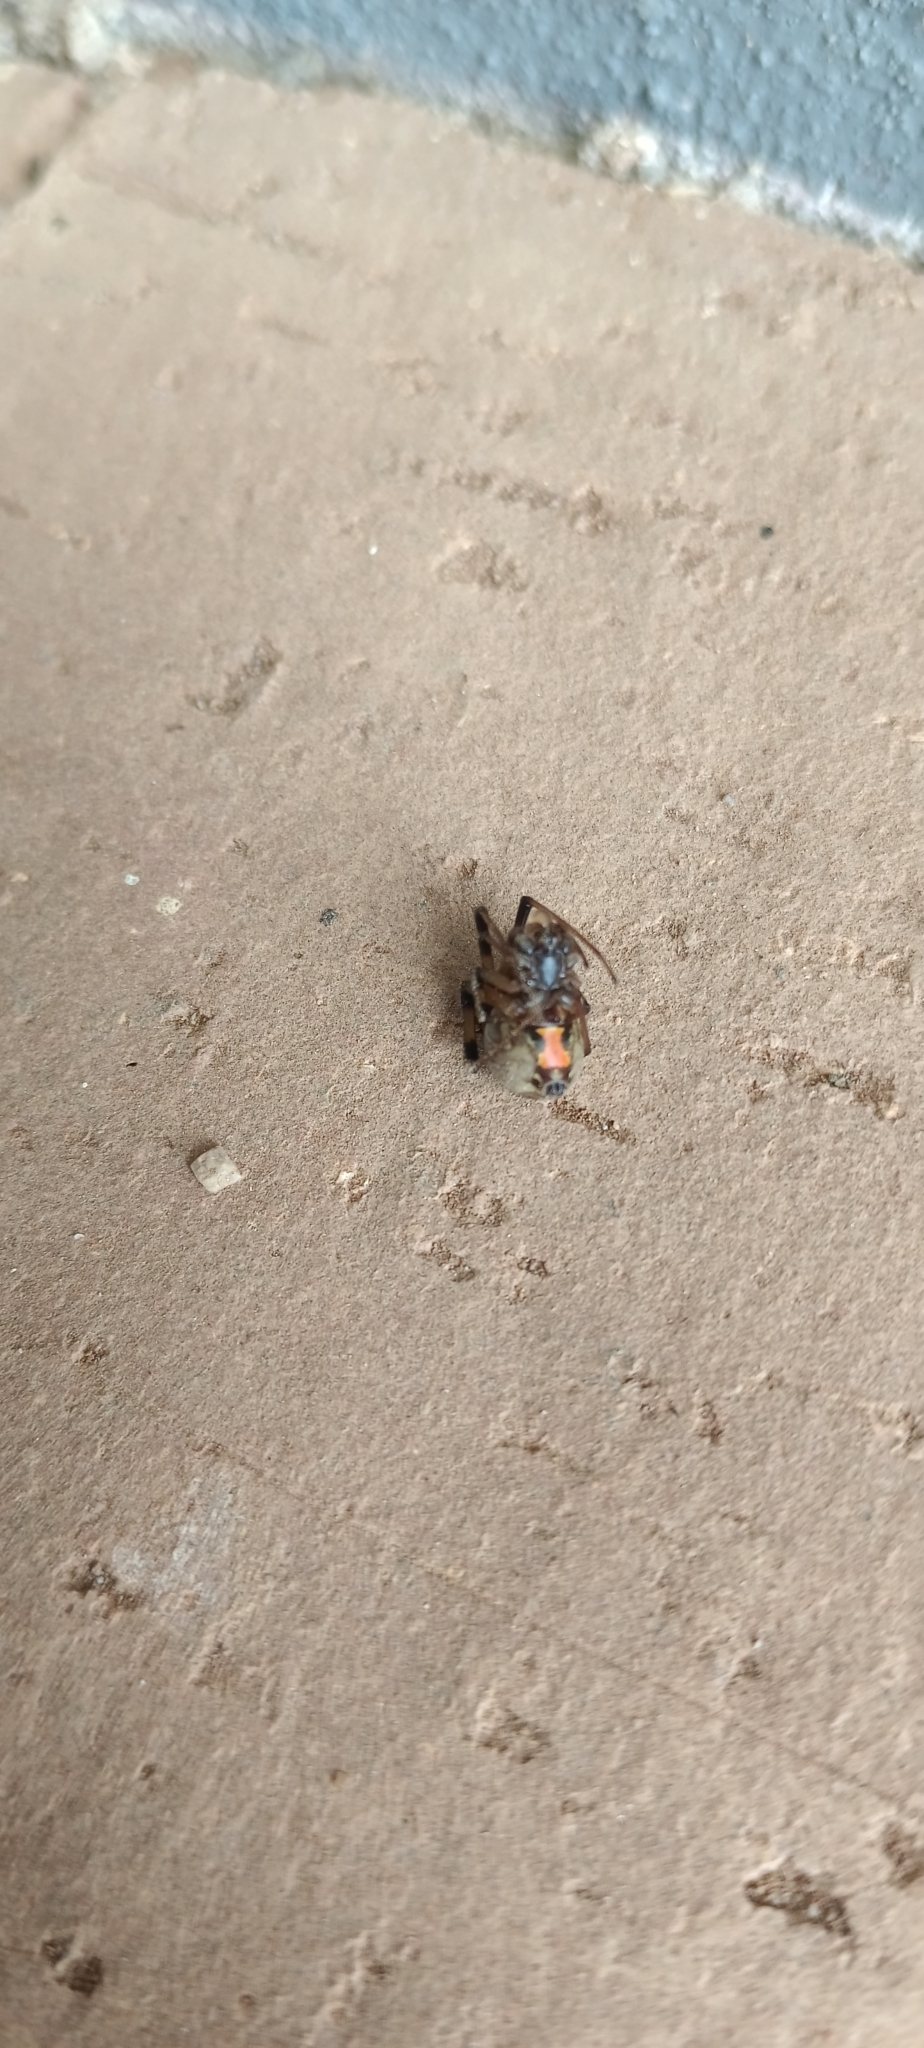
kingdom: Animalia
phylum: Arthropoda
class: Arachnida
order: Araneae
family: Theridiidae
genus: Latrodectus
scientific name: Latrodectus geometricus
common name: Brown widow spider
